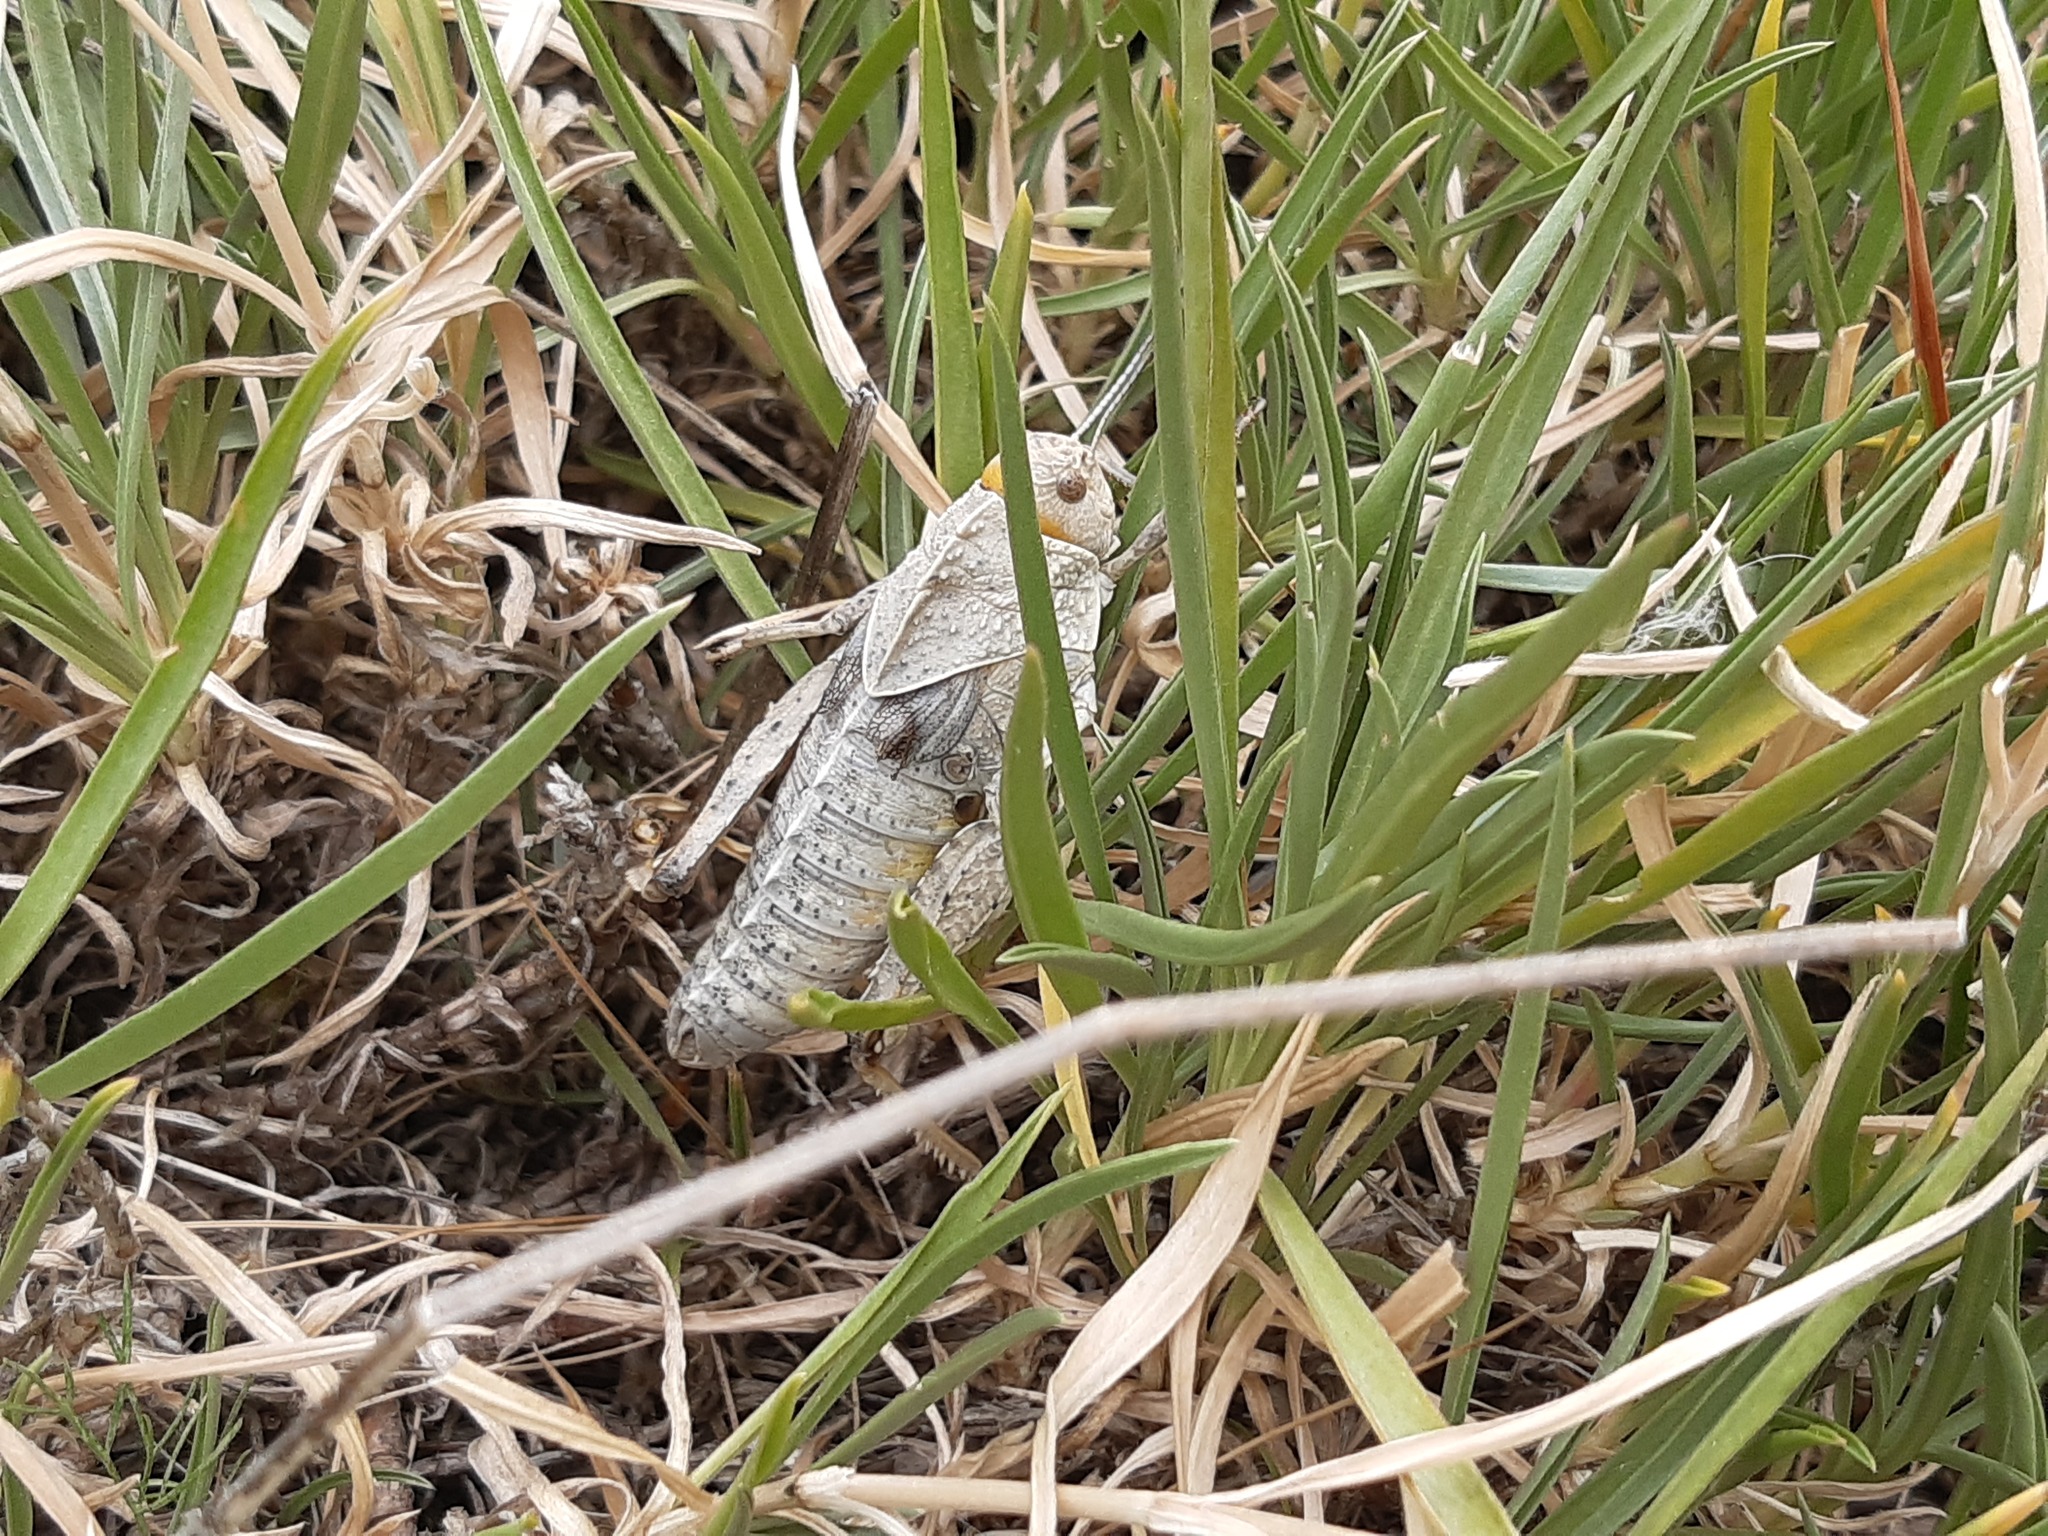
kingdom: Animalia
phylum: Arthropoda
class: Insecta
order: Orthoptera
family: Pamphagidae
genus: Prionotropis
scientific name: Prionotropis hystrix
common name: Eastern stone grasshopper
